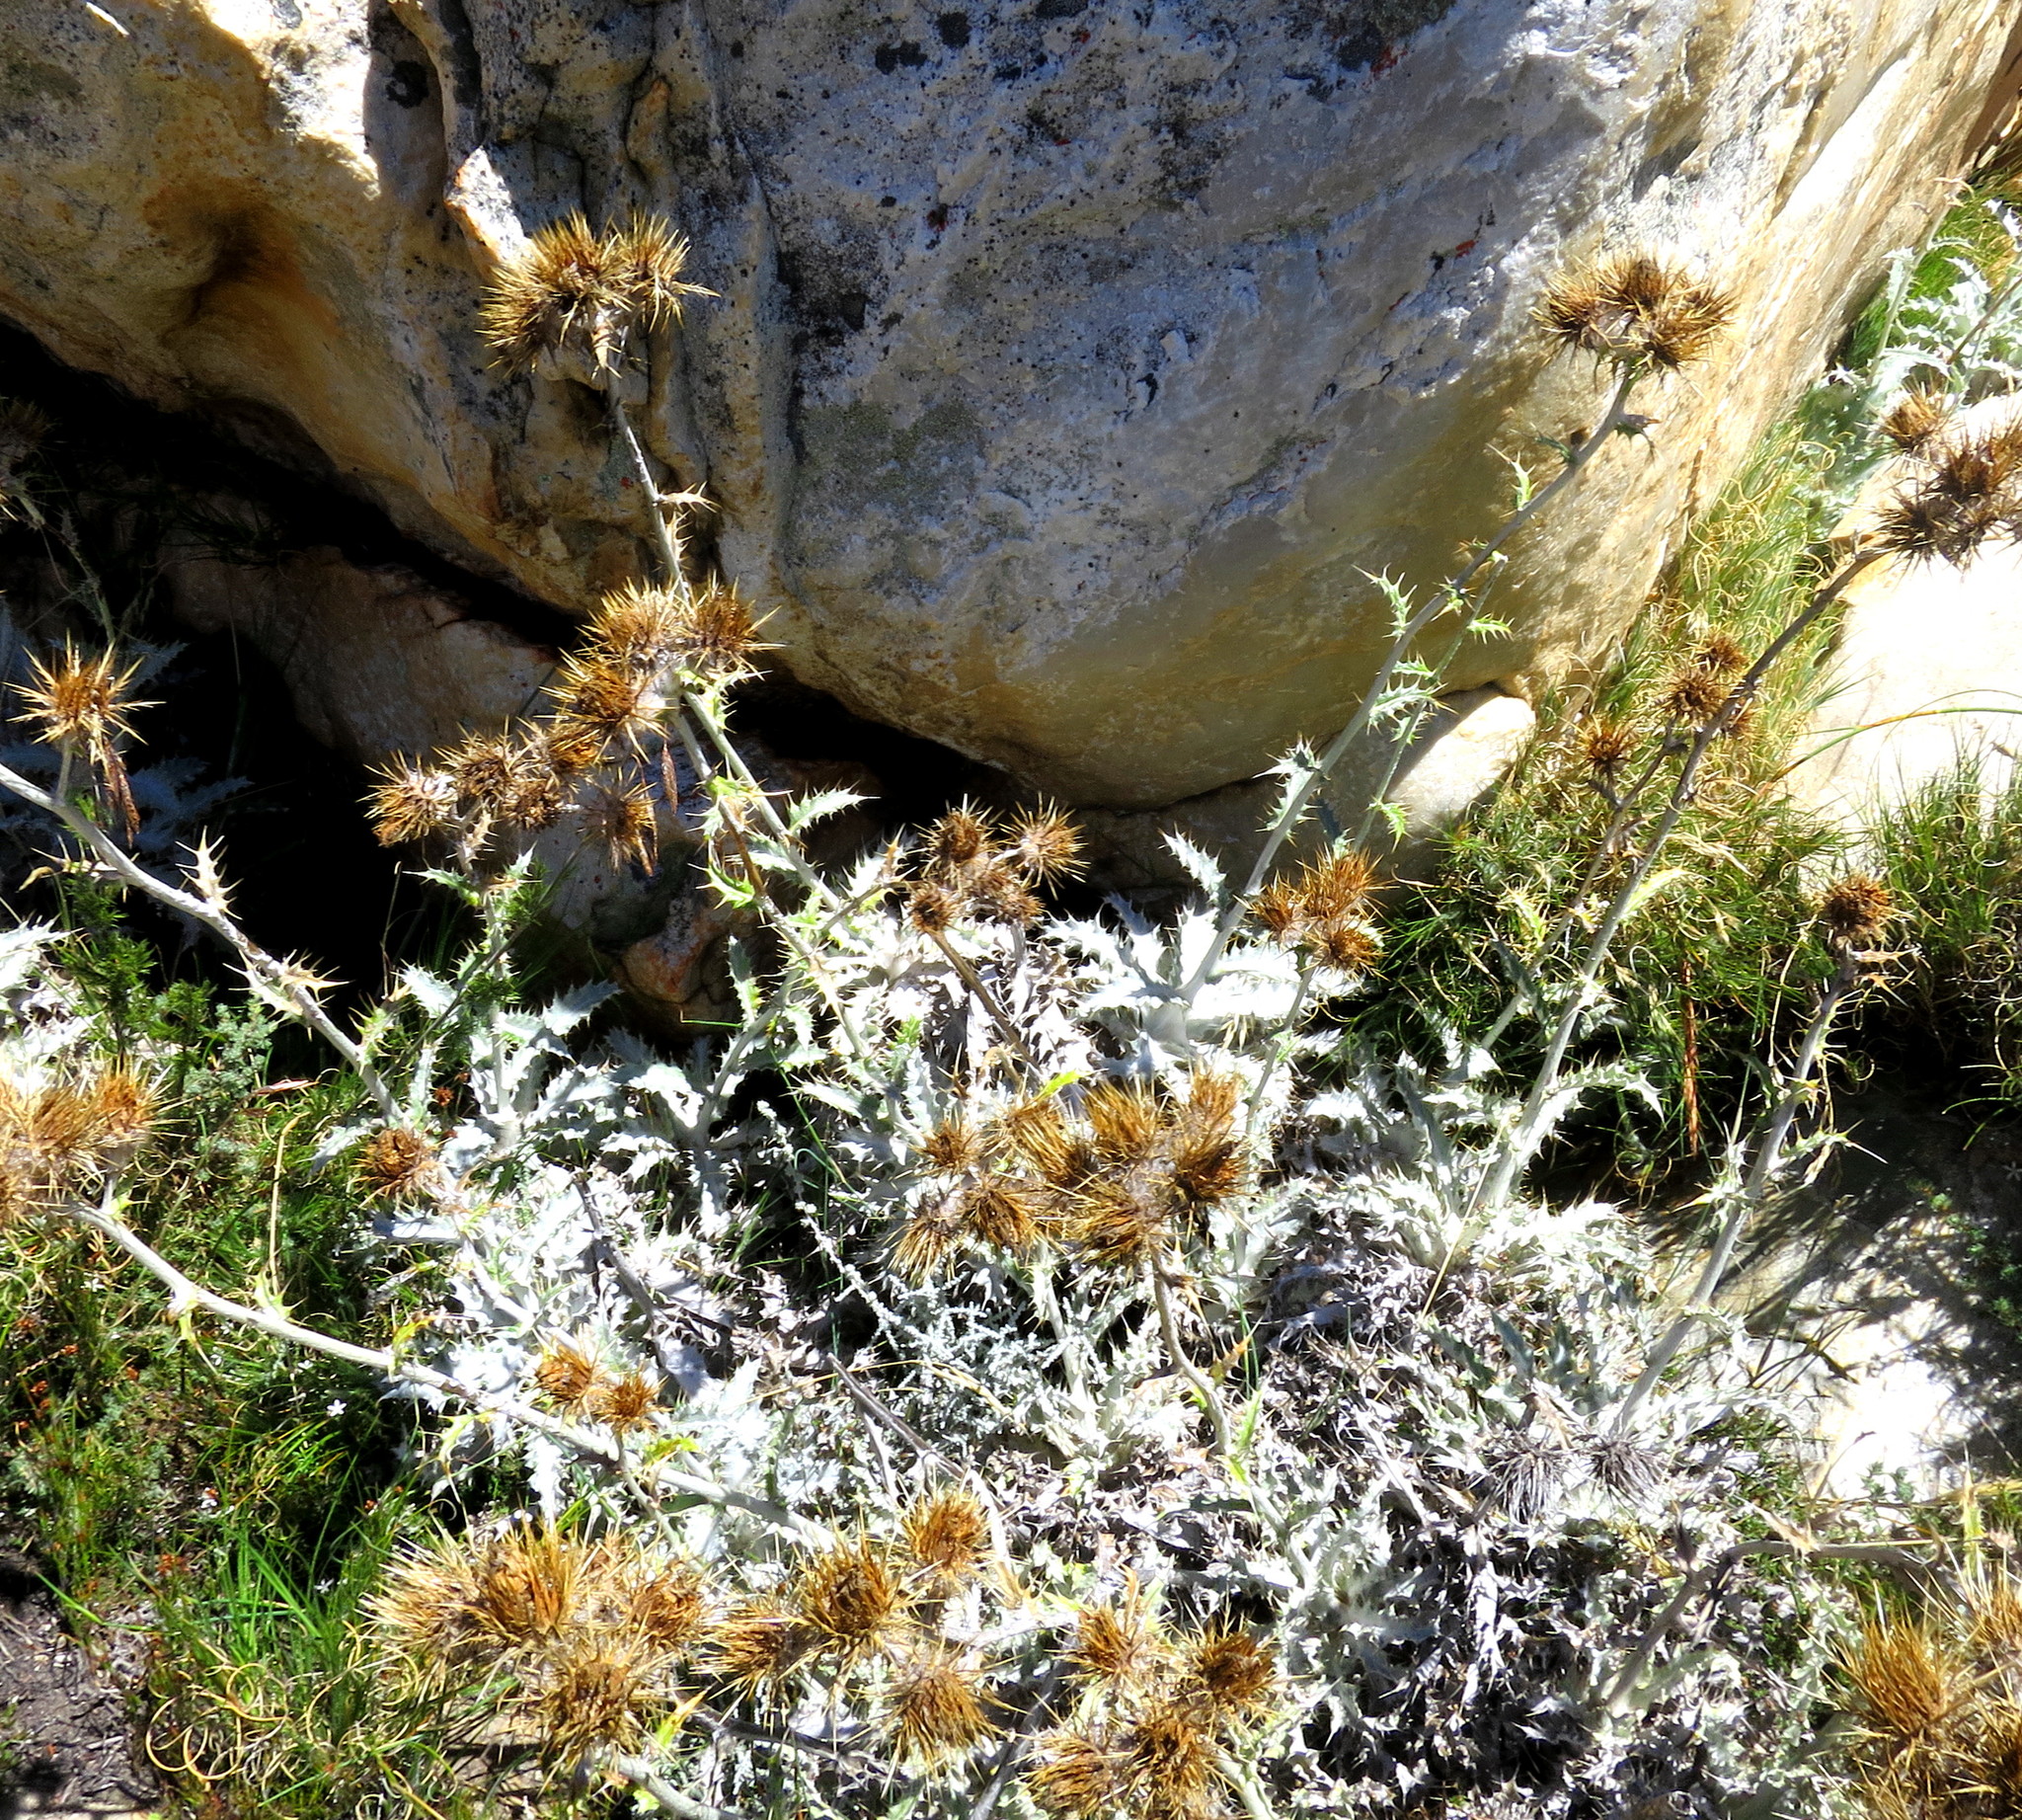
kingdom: Plantae
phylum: Tracheophyta
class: Magnoliopsida
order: Asterales
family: Asteraceae
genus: Berkheya
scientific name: Berkheya francisci
